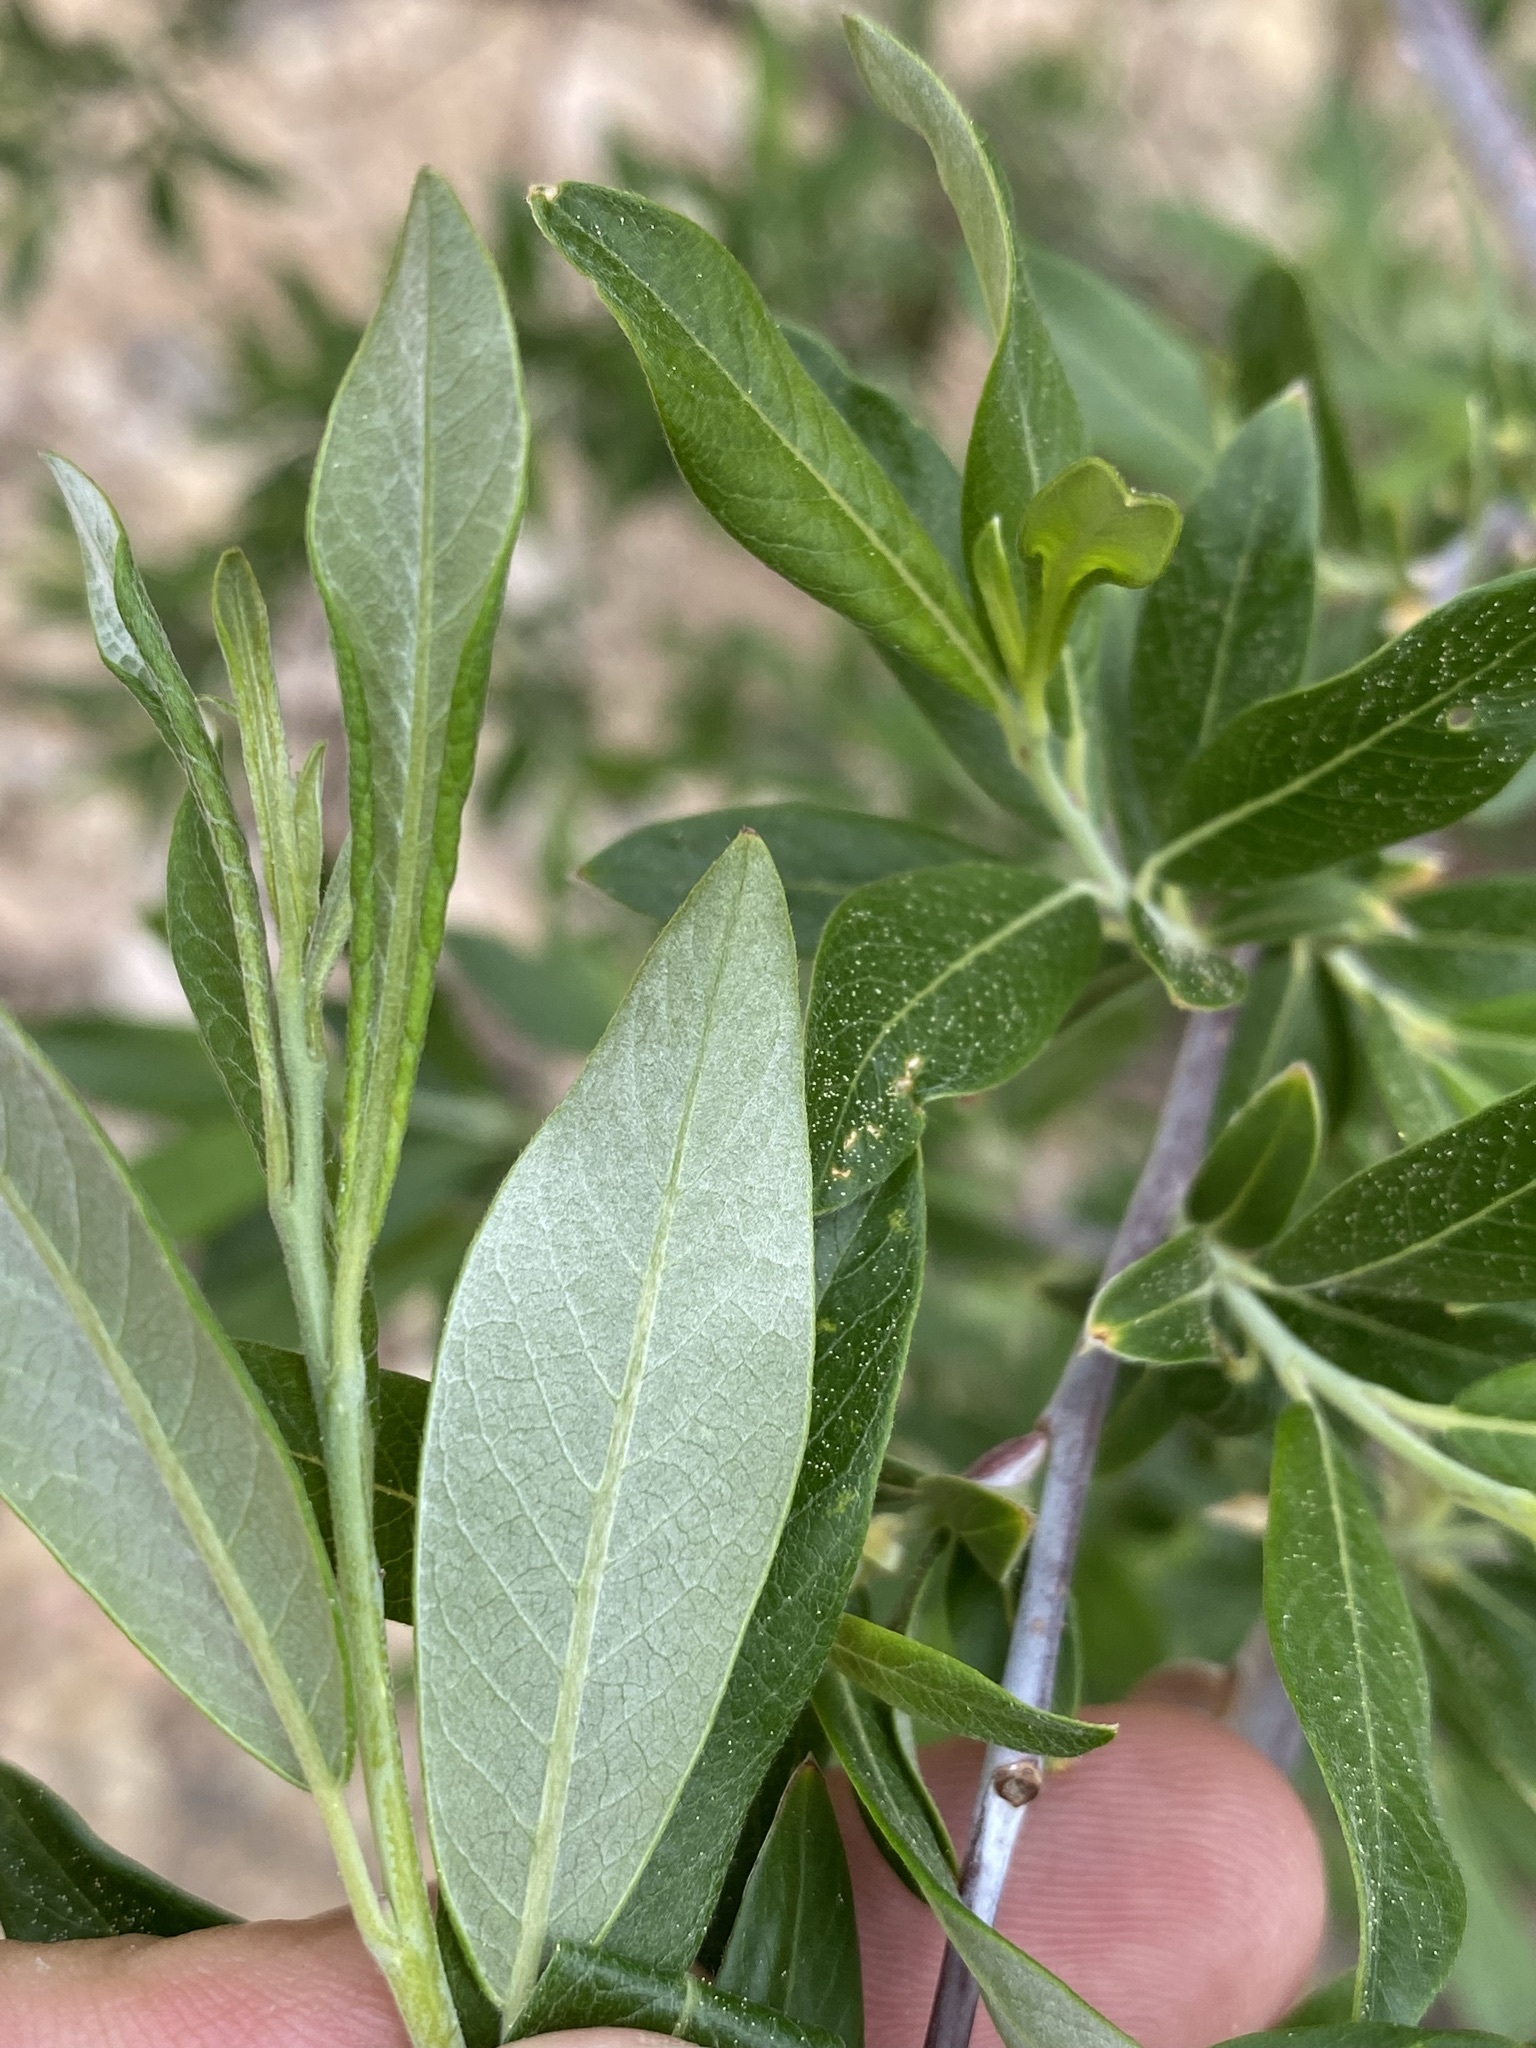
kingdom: Plantae
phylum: Tracheophyta
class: Magnoliopsida
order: Malpighiales
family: Salicaceae
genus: Salix
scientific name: Salix drummondiana
